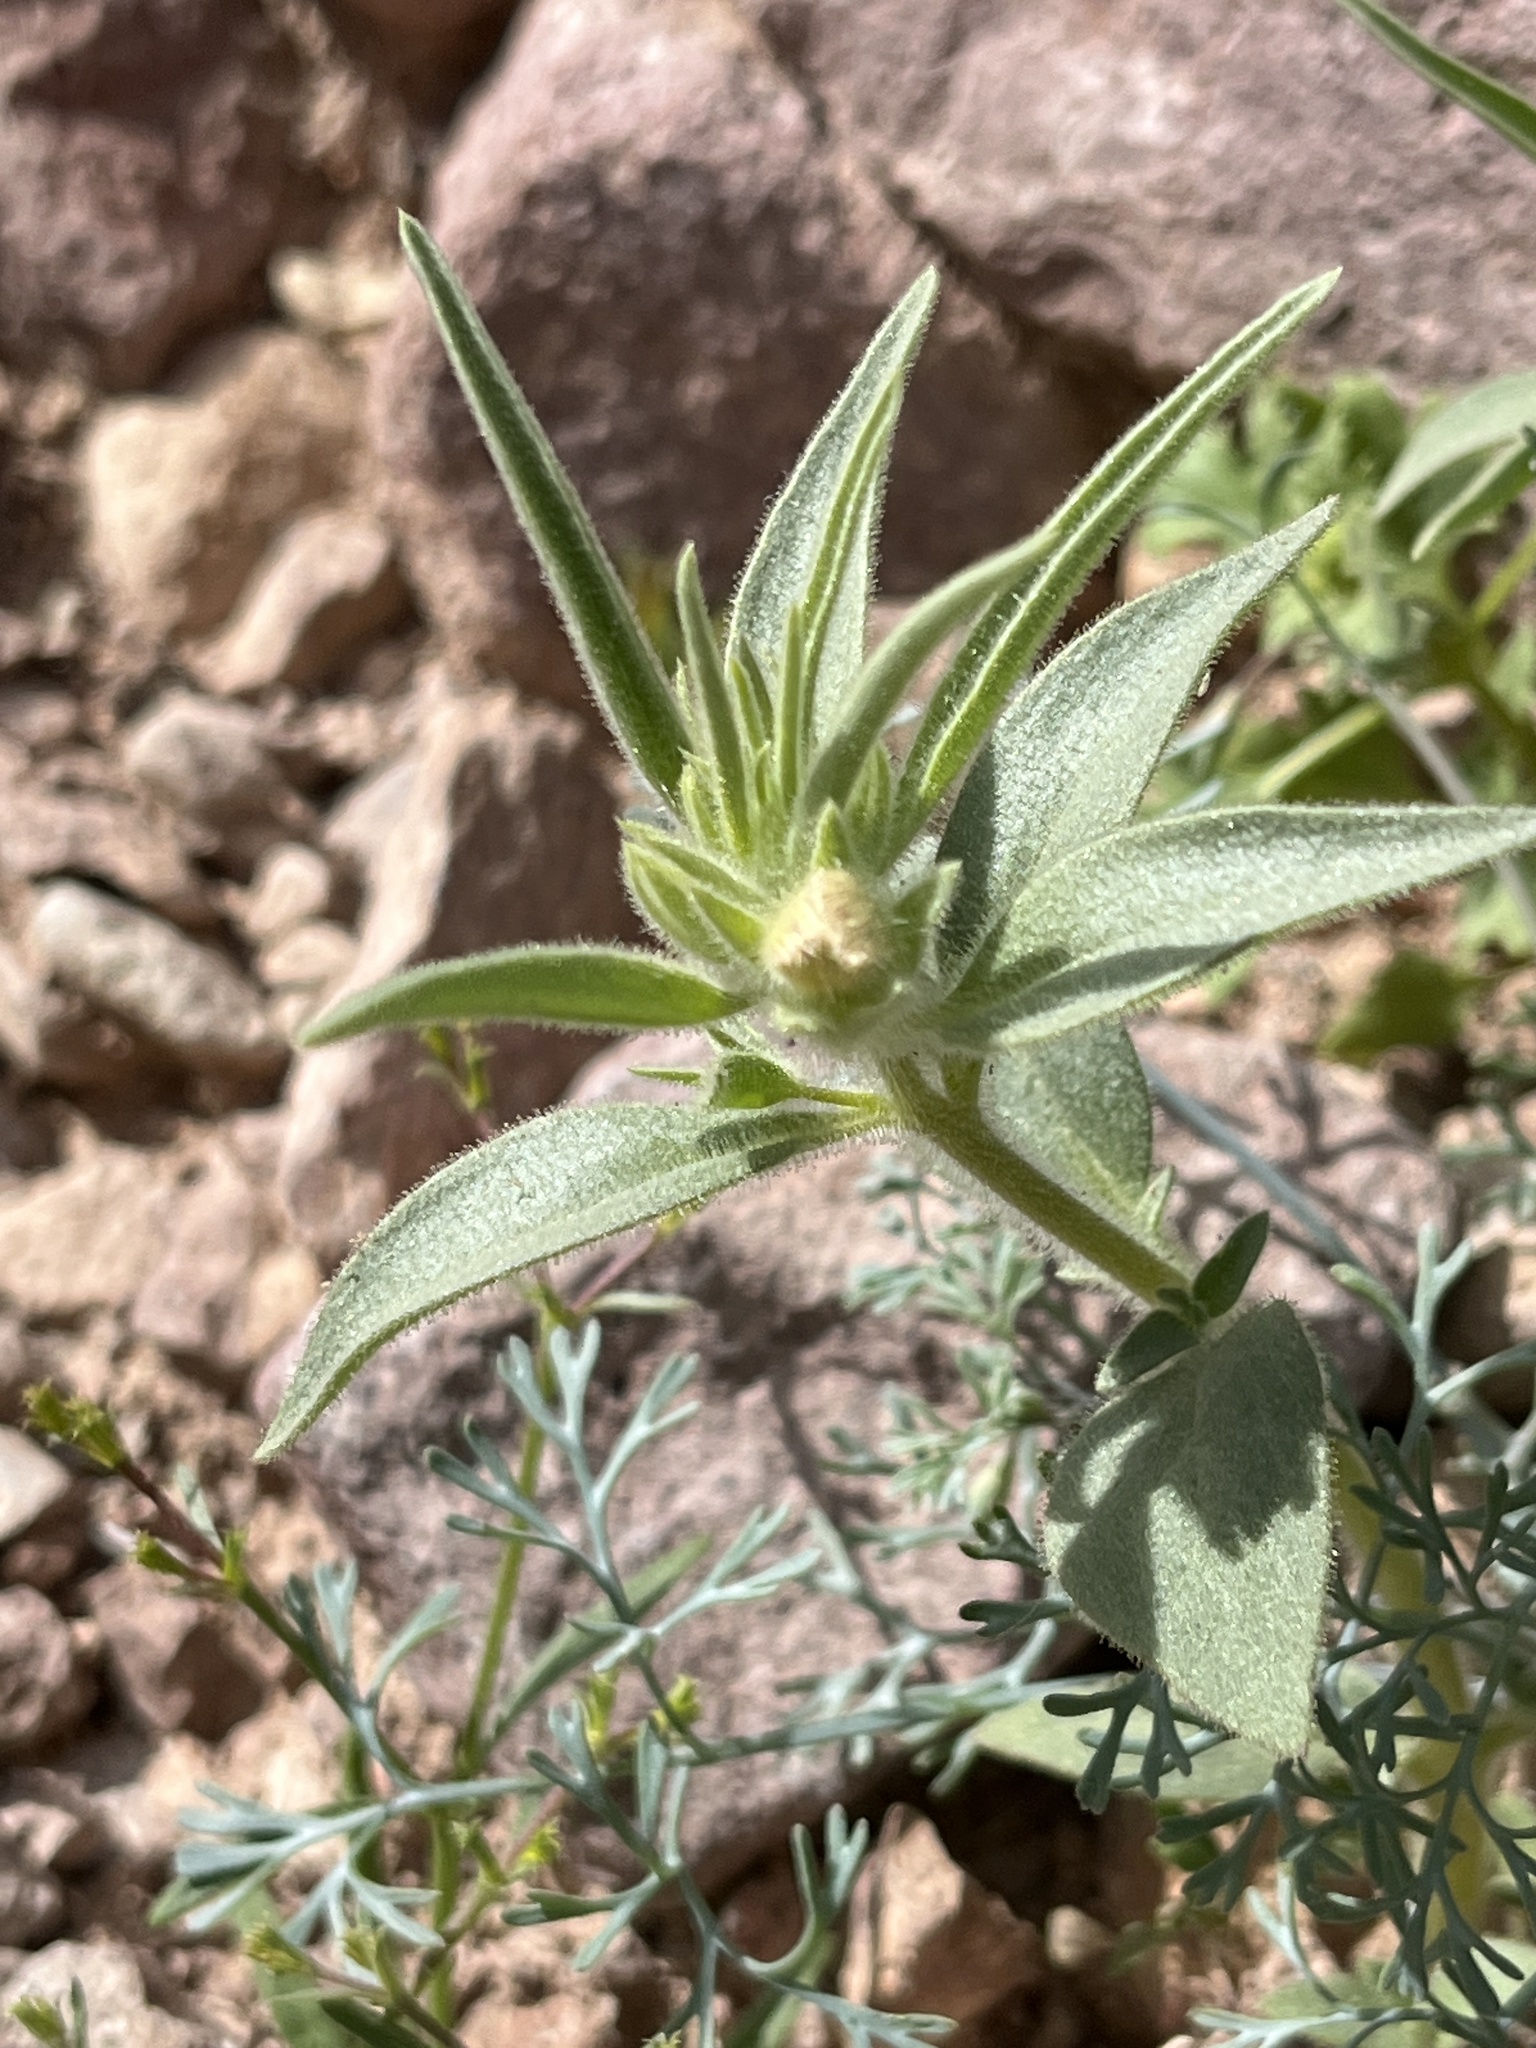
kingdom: Plantae
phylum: Tracheophyta
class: Magnoliopsida
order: Lamiales
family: Plantaginaceae
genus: Mohavea
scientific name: Mohavea confertiflora
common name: Ghost flower
